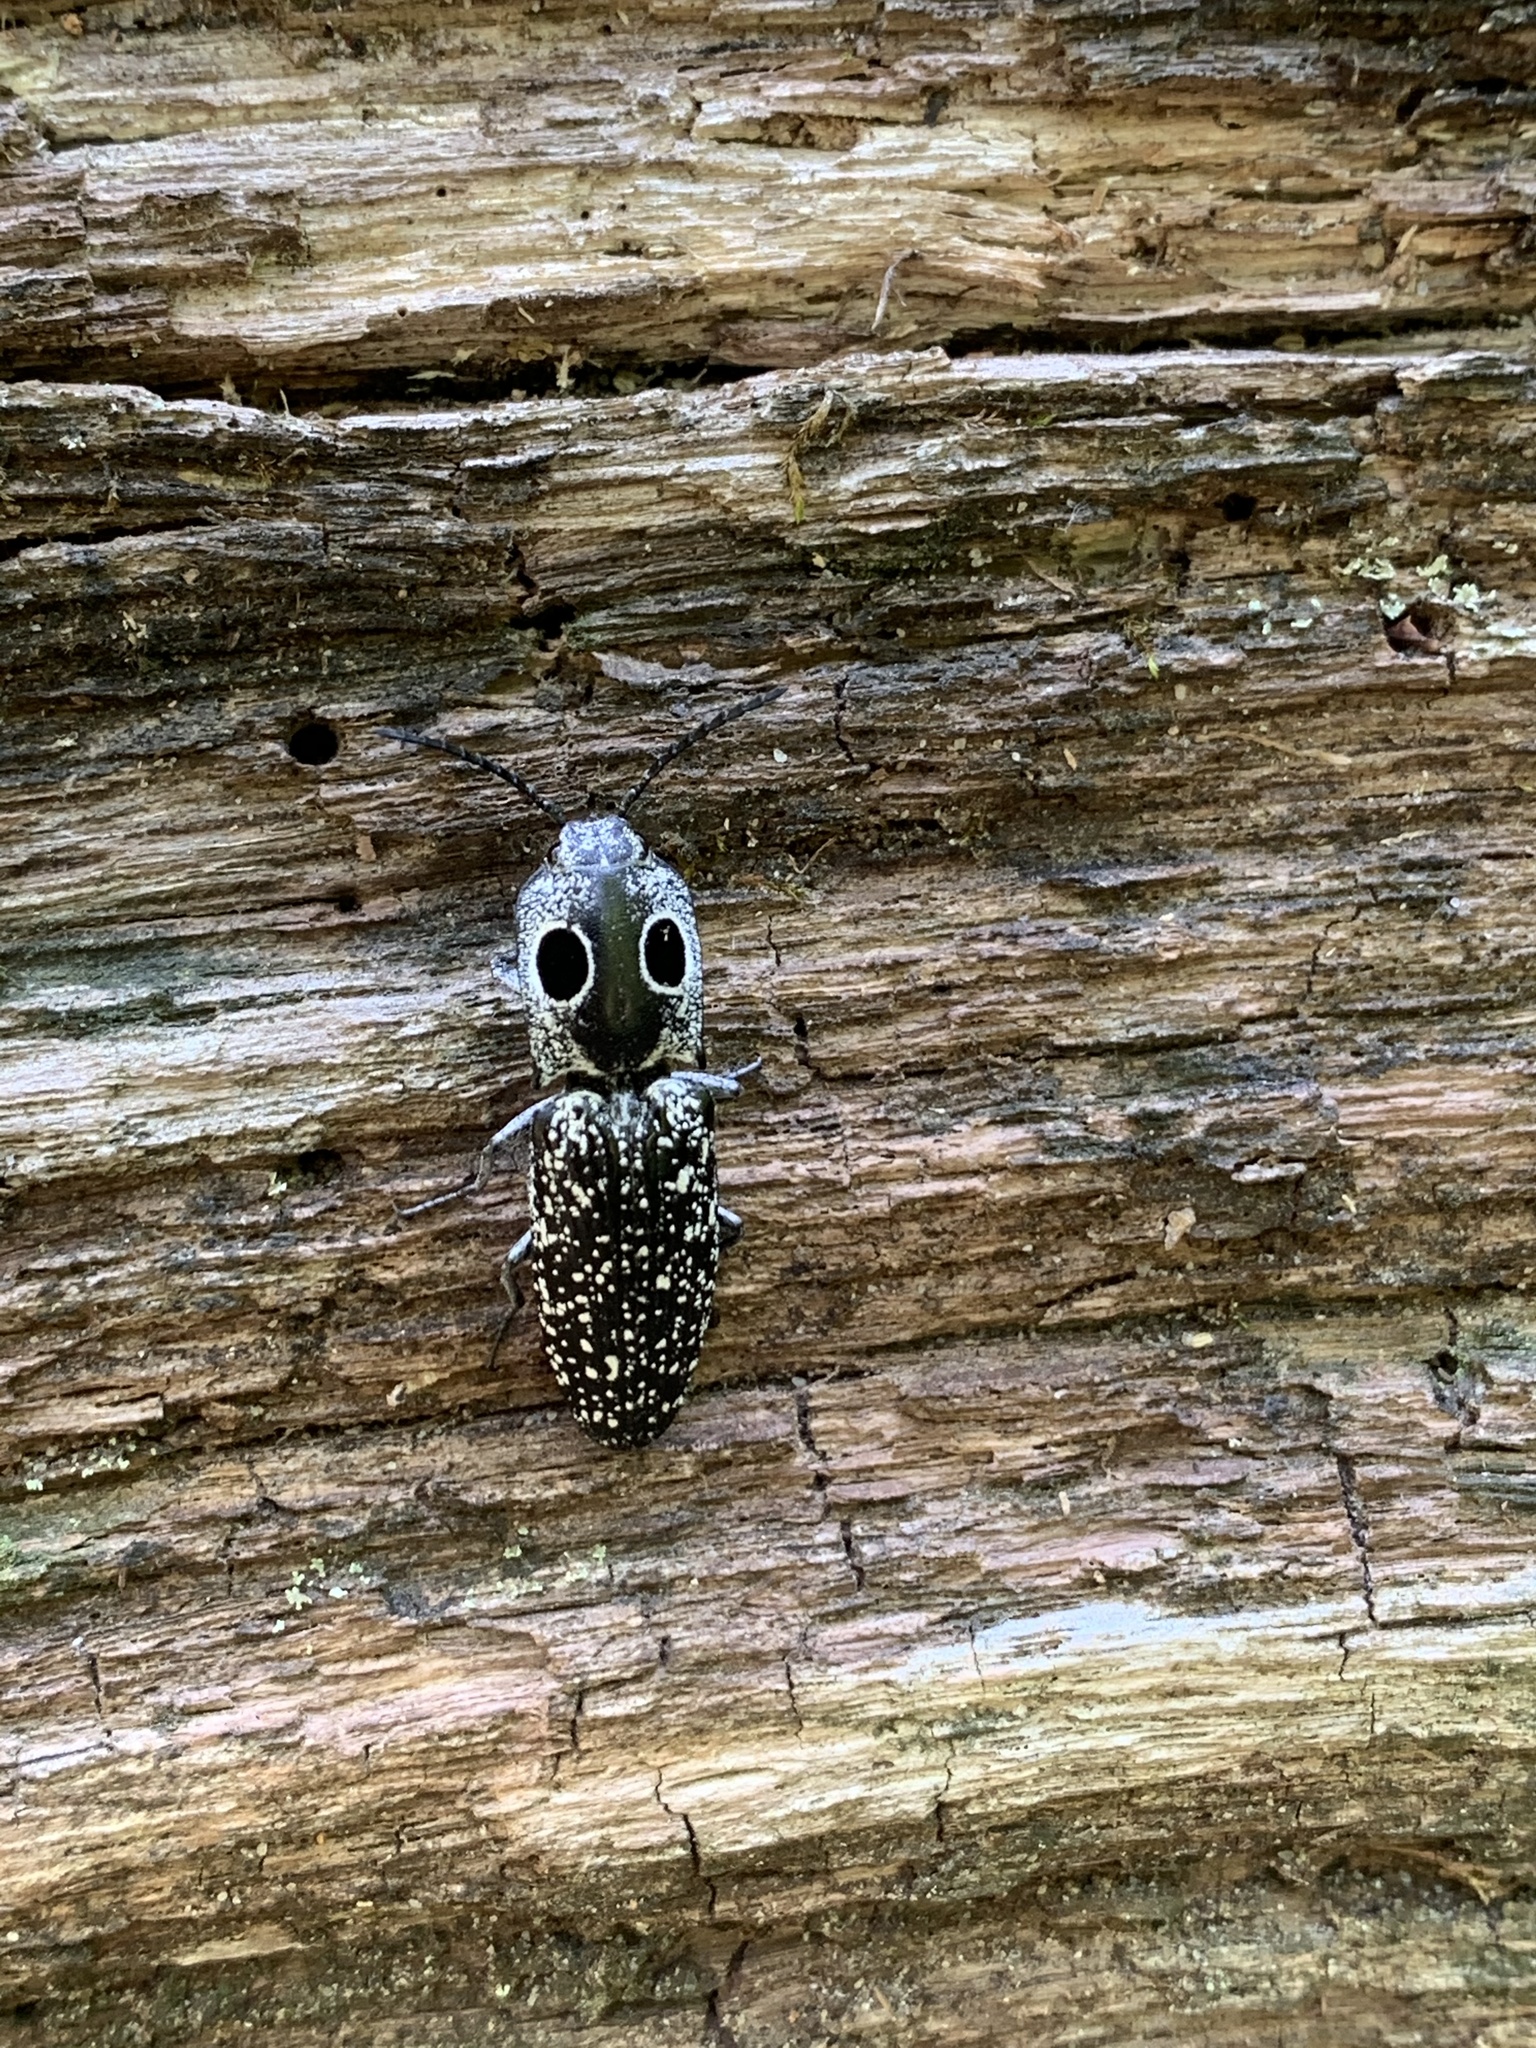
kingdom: Animalia
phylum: Arthropoda
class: Insecta
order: Coleoptera
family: Elateridae
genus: Alaus
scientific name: Alaus oculatus
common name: Eastern eyed click beetle
